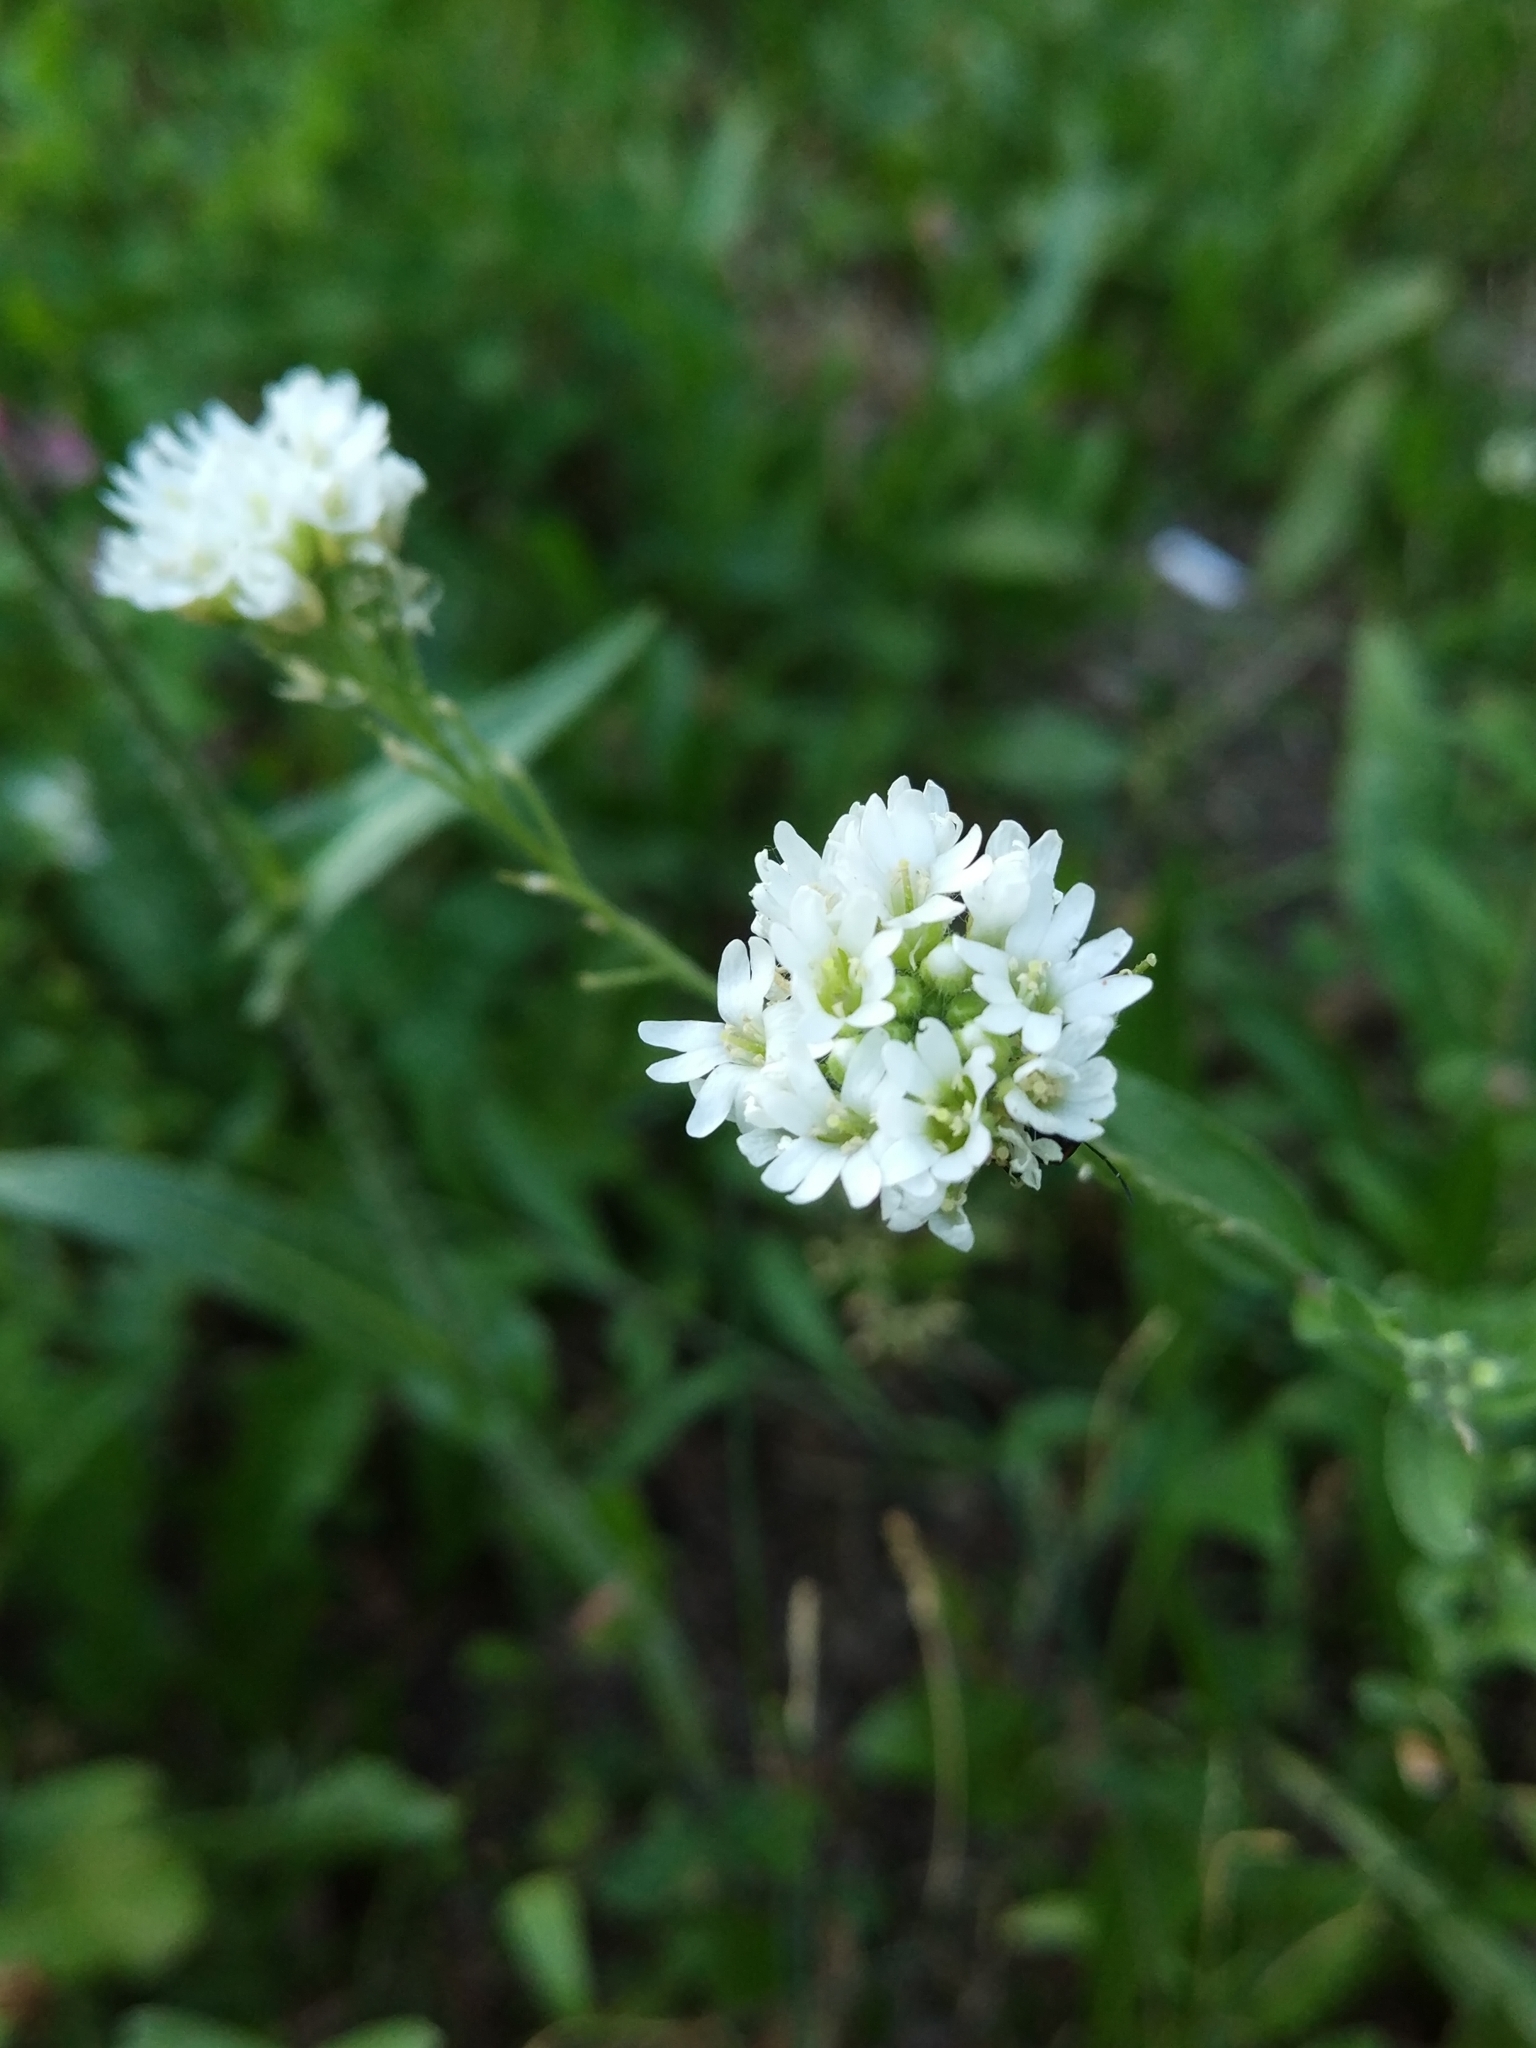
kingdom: Plantae
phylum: Tracheophyta
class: Magnoliopsida
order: Brassicales
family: Brassicaceae
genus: Berteroa
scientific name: Berteroa incana
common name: Hoary alison
